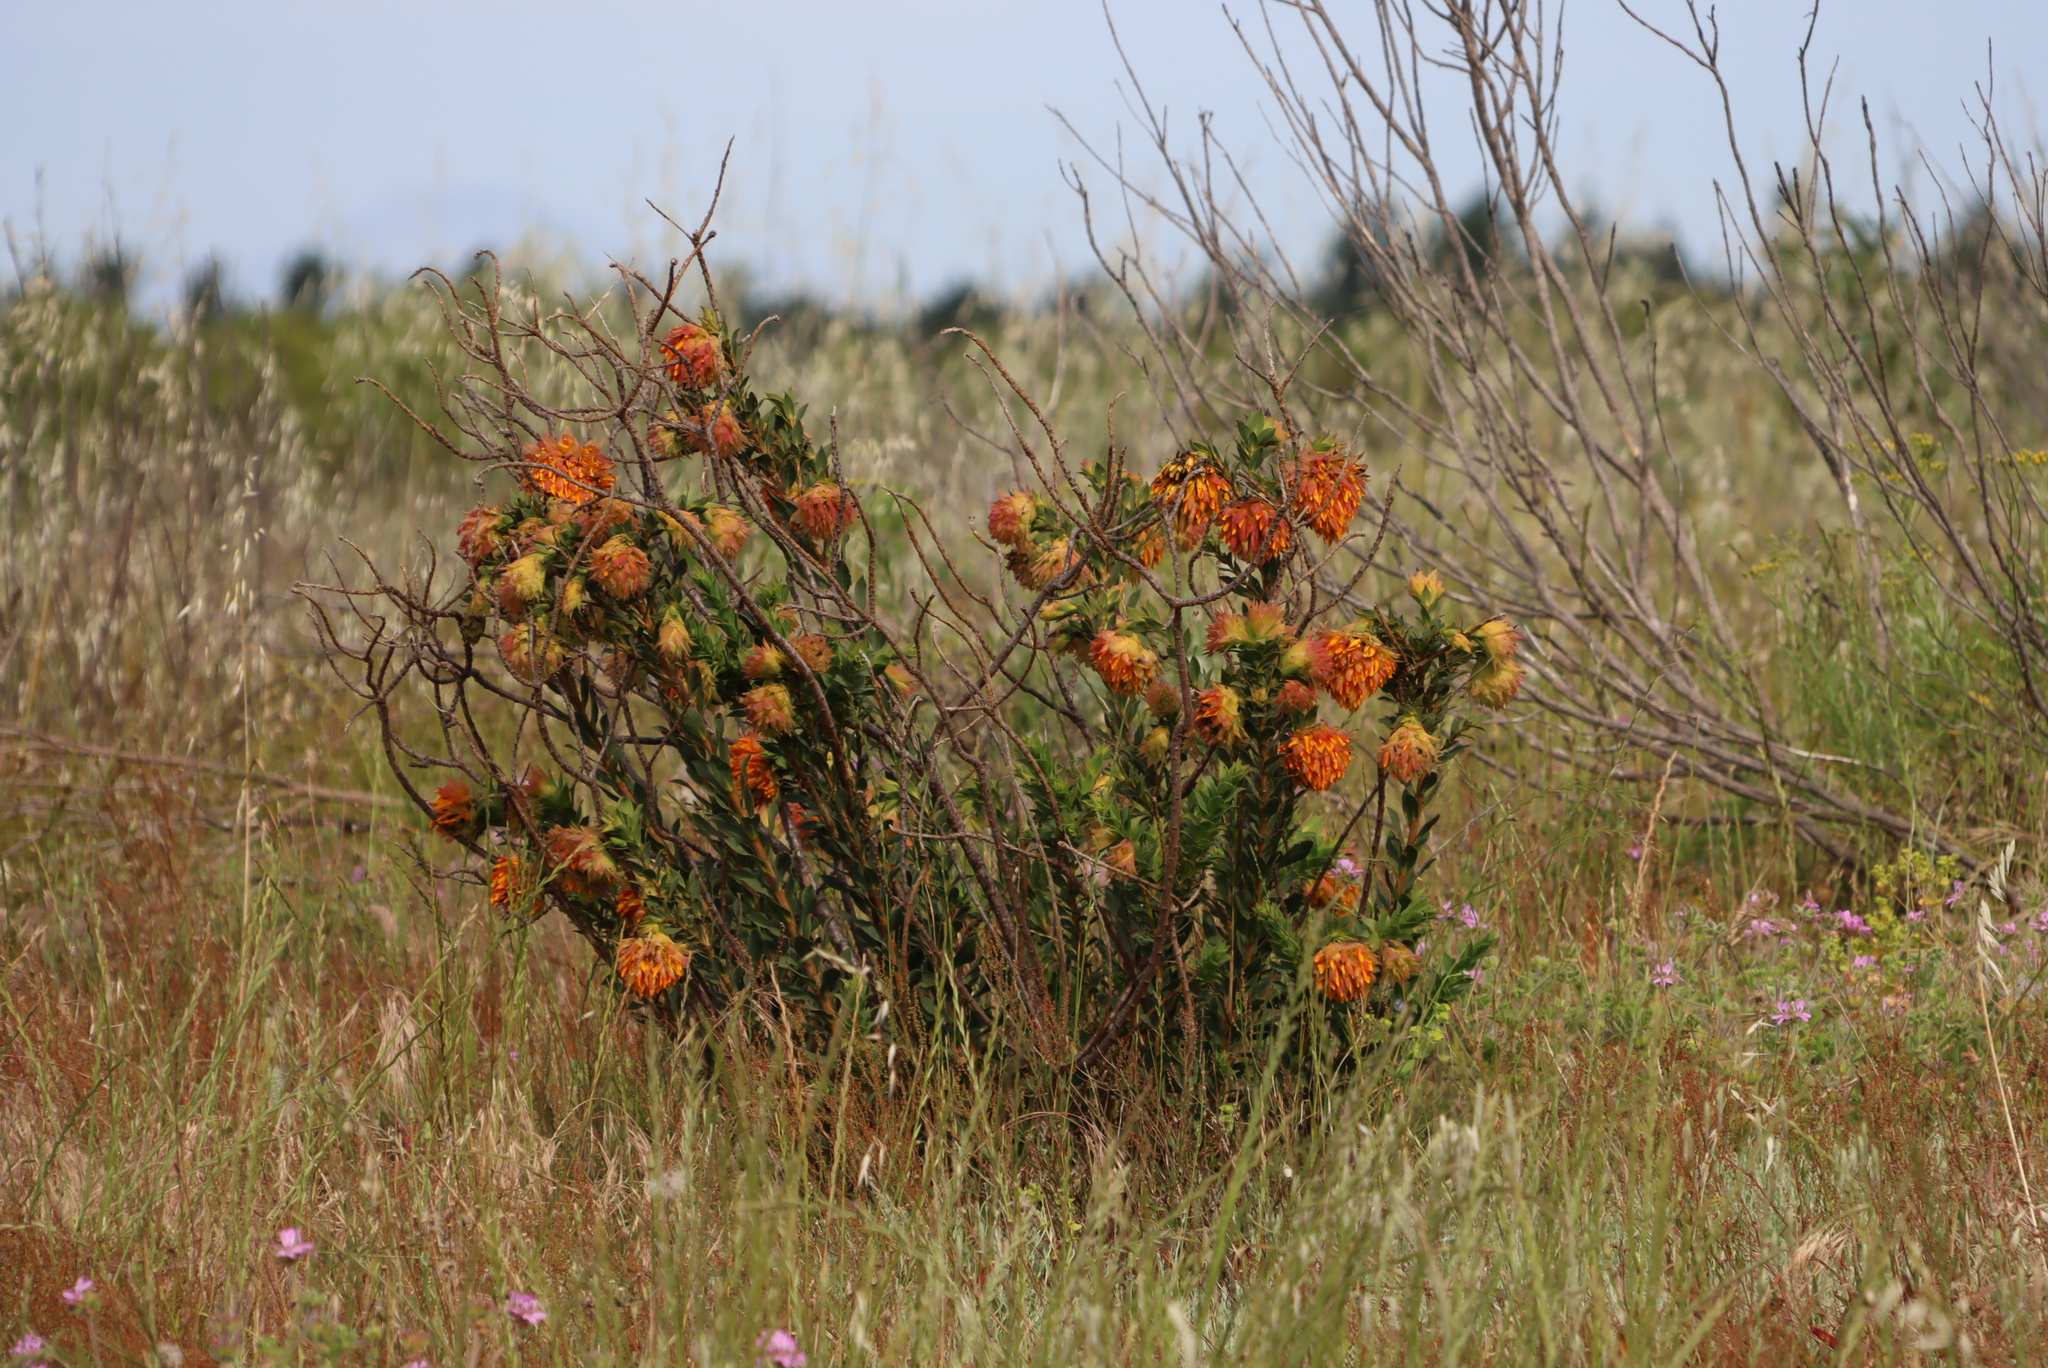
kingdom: Plantae
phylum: Tracheophyta
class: Magnoliopsida
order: Fabales
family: Fabaceae
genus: Liparia
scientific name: Liparia splendens
